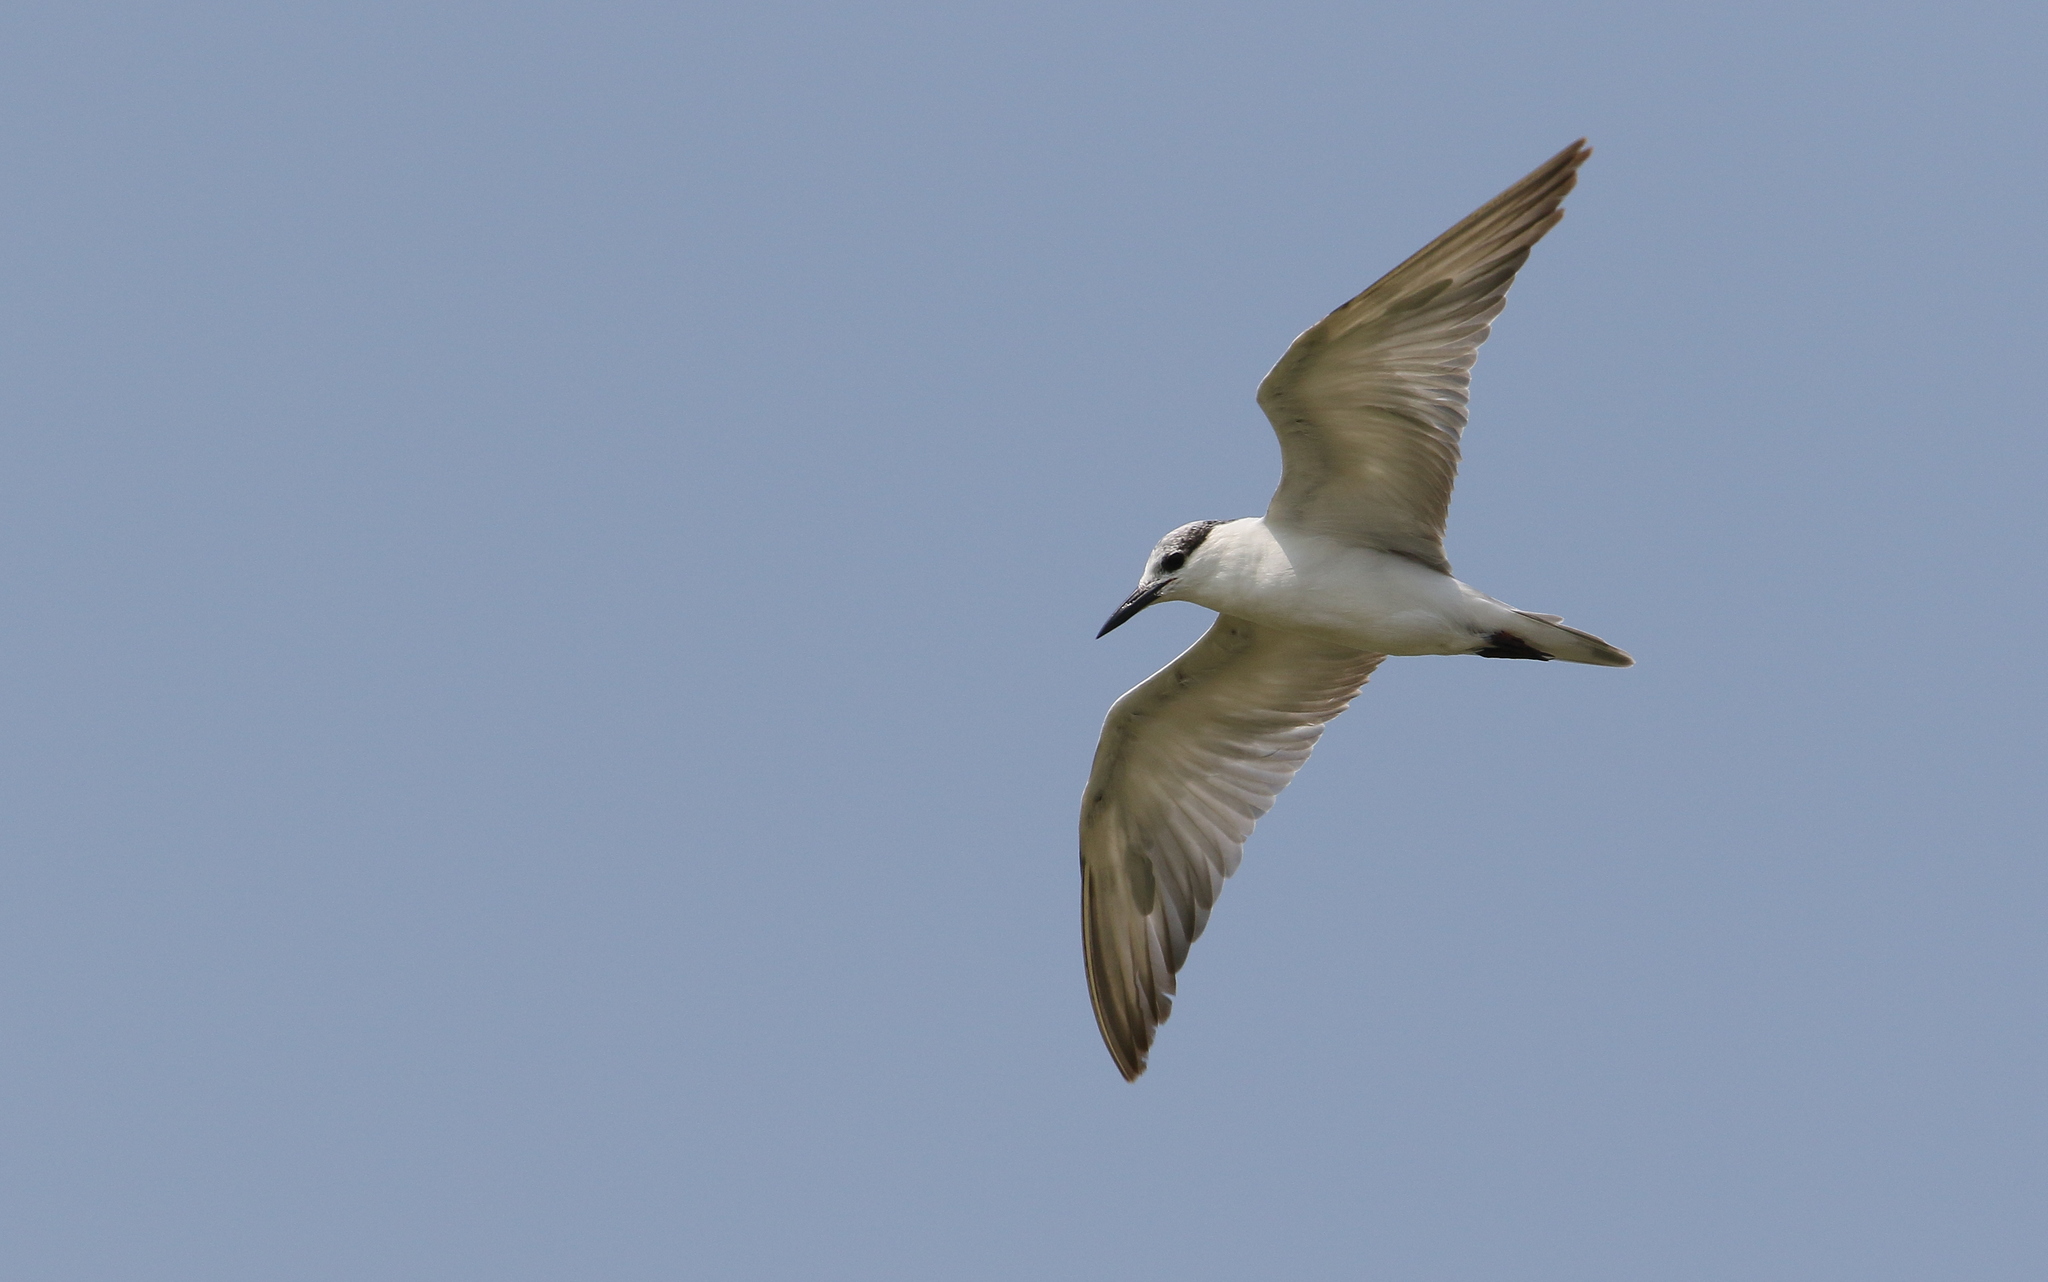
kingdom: Animalia
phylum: Chordata
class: Aves
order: Charadriiformes
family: Laridae
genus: Chlidonias
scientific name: Chlidonias hybrida
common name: Whiskered tern
